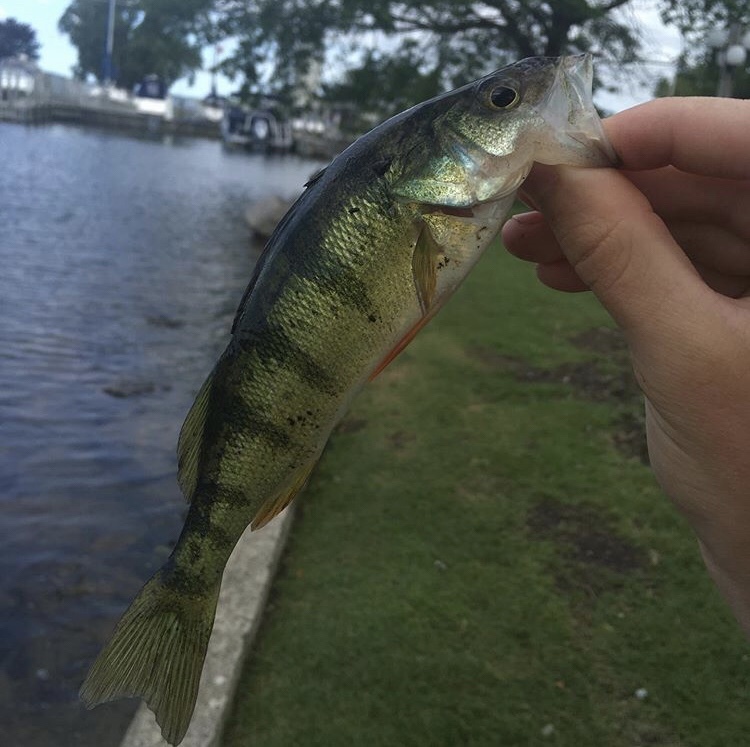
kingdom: Animalia
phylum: Chordata
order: Perciformes
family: Percidae
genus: Perca
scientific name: Perca flavescens
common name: Yellow perch
